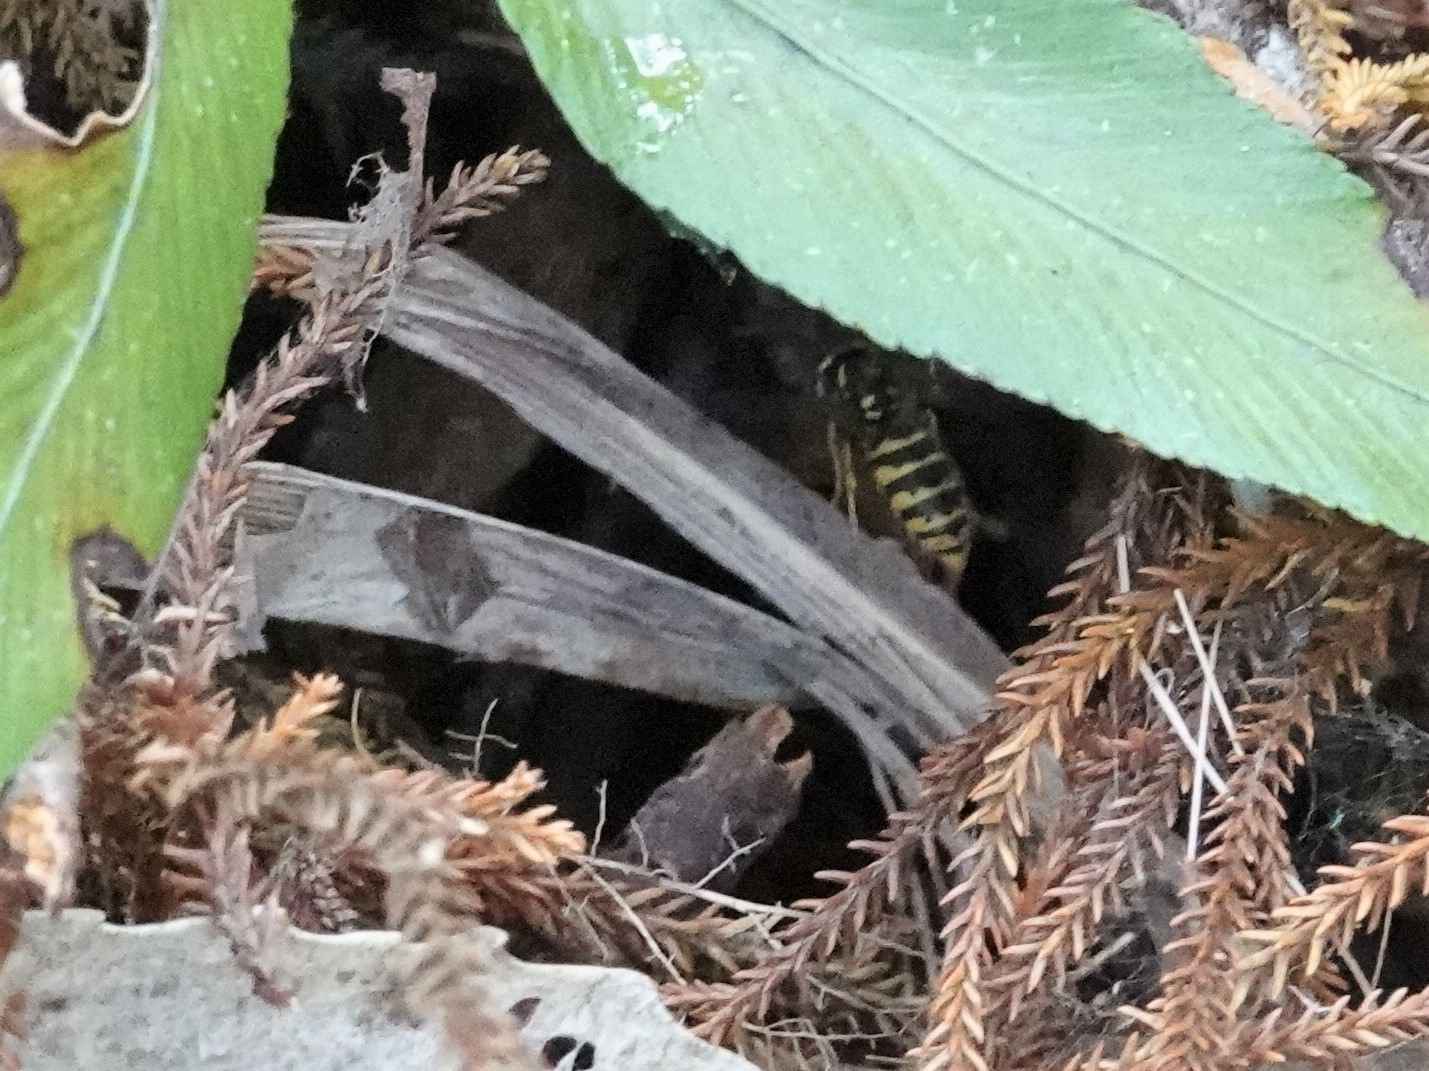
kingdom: Animalia
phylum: Arthropoda
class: Insecta
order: Hymenoptera
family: Vespidae
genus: Vespula
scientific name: Vespula vulgaris
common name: Common wasp
